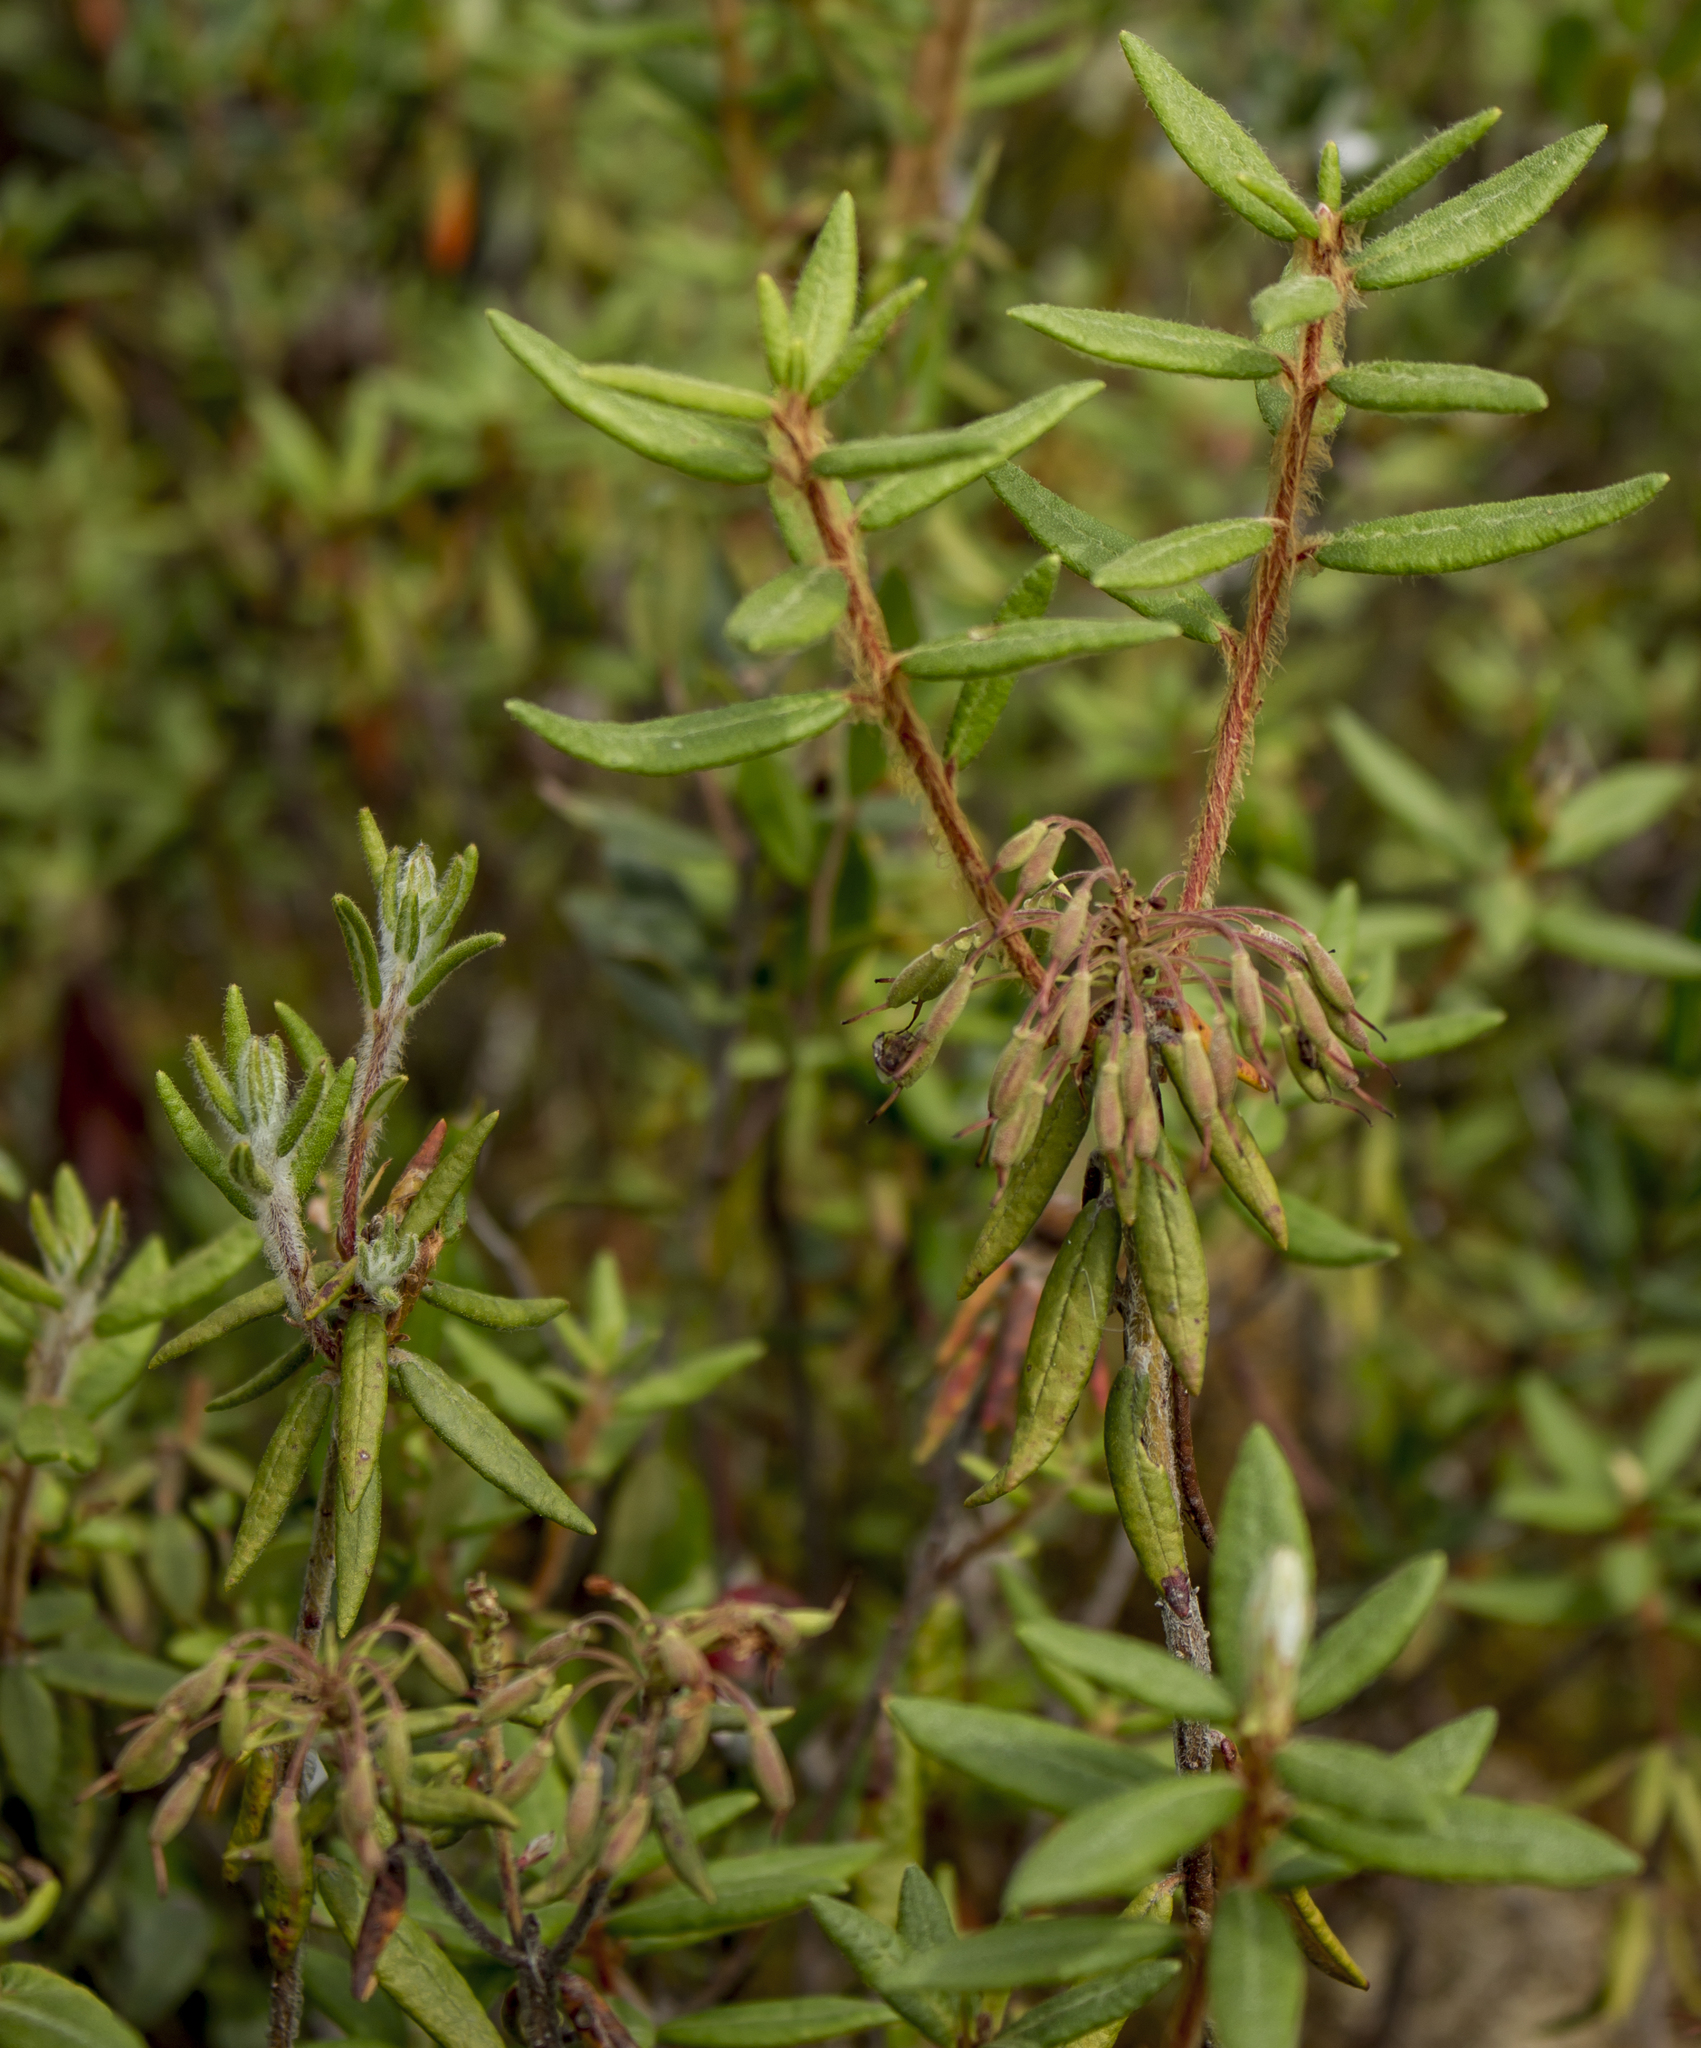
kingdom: Plantae
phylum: Tracheophyta
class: Magnoliopsida
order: Ericales
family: Ericaceae
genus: Rhododendron
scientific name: Rhododendron groenlandicum
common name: Bog labrador tea
